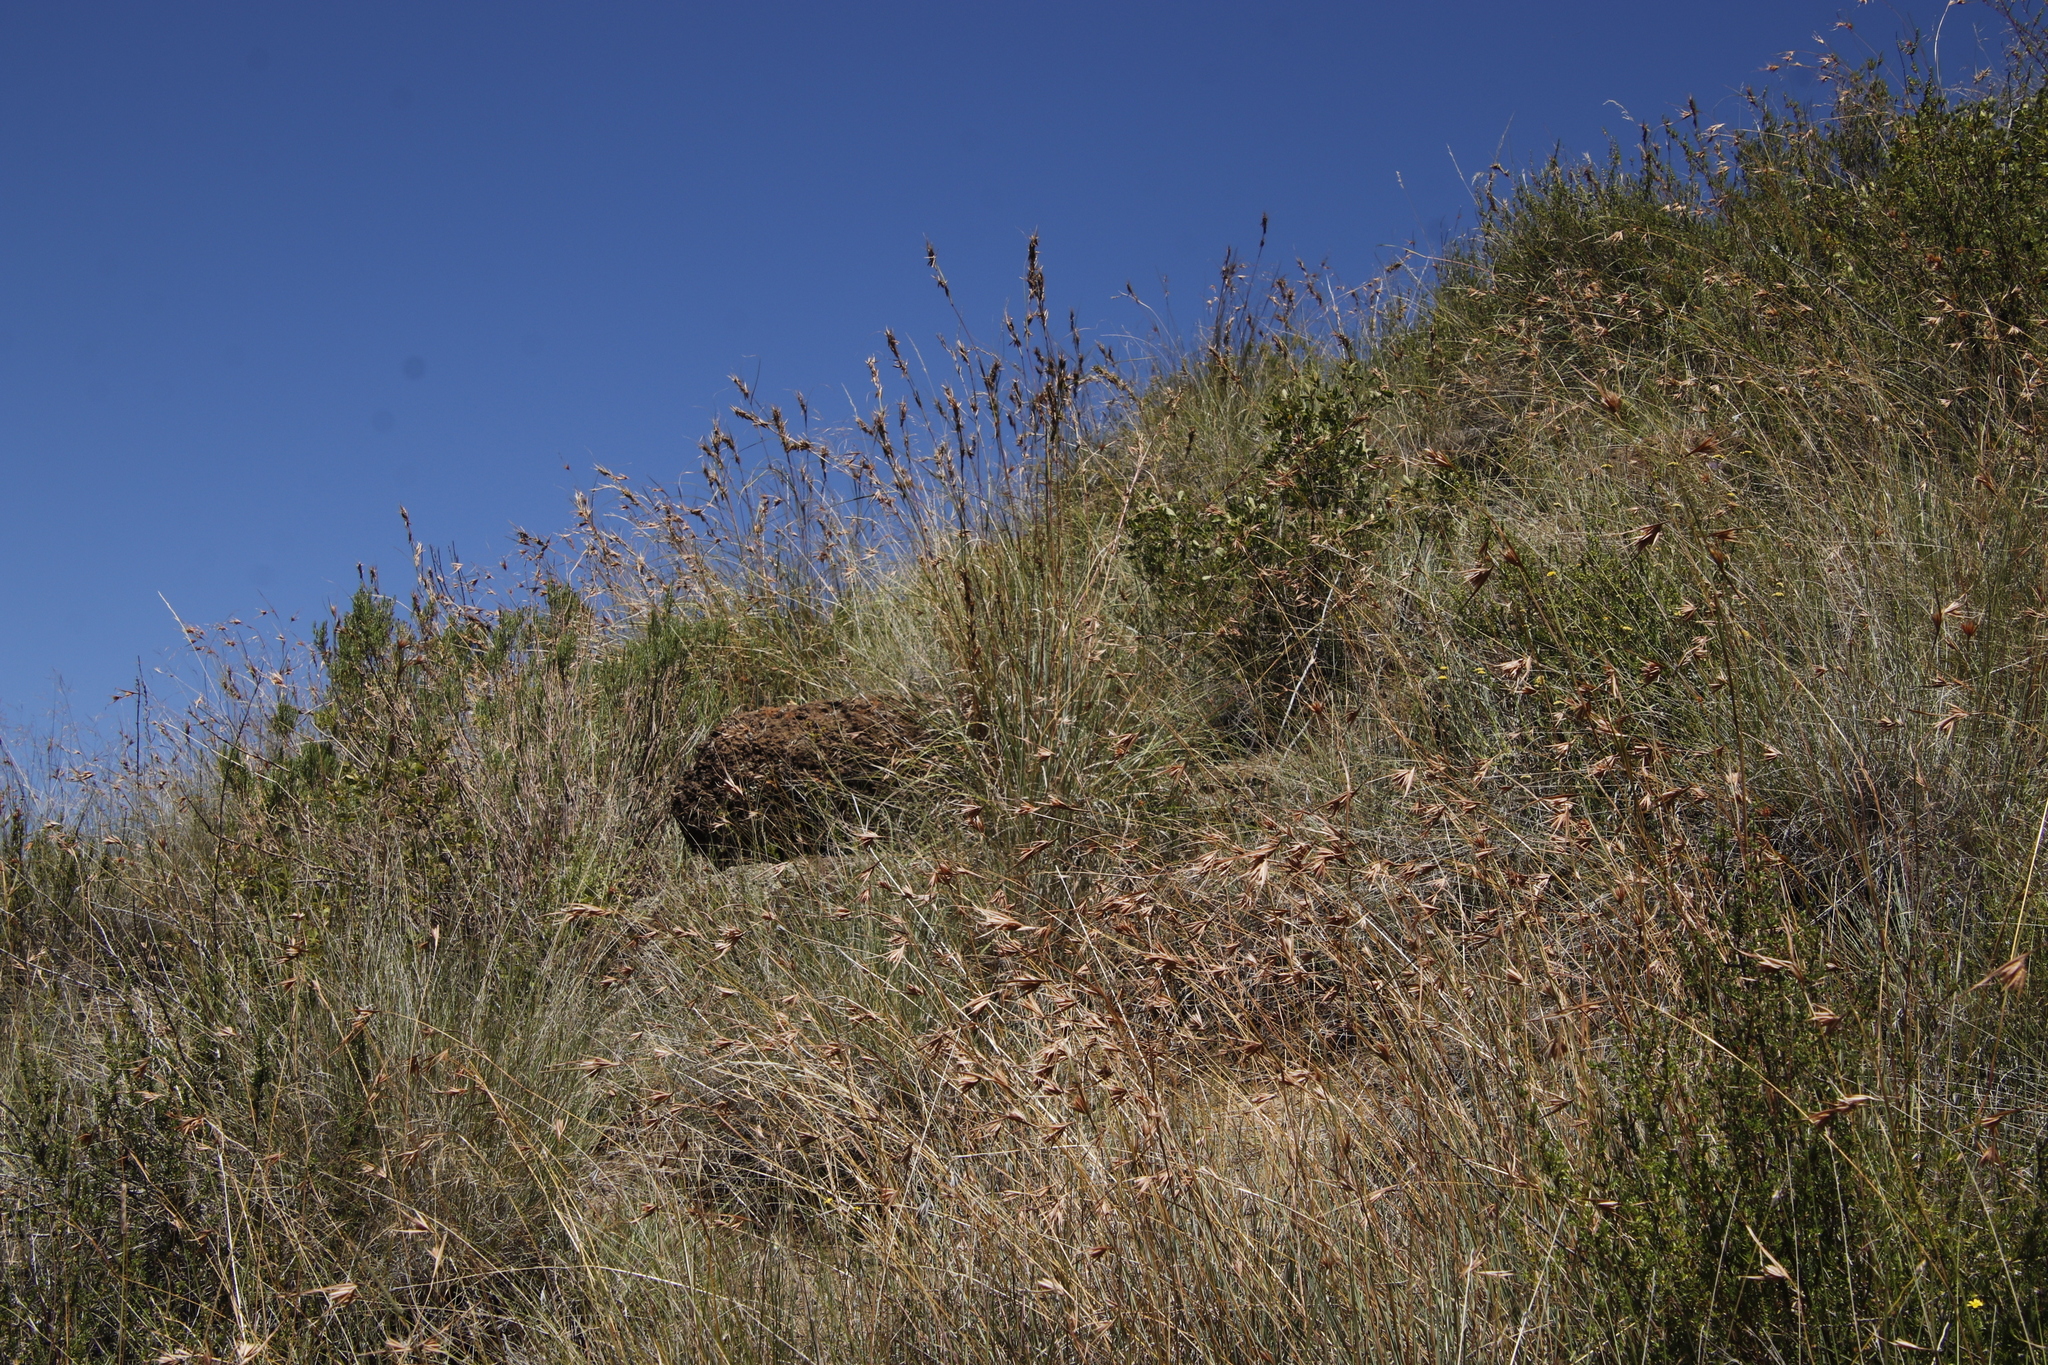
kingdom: Plantae
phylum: Tracheophyta
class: Liliopsida
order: Poales
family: Poaceae
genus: Themeda
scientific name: Themeda triandra
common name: Kangaroo grass
